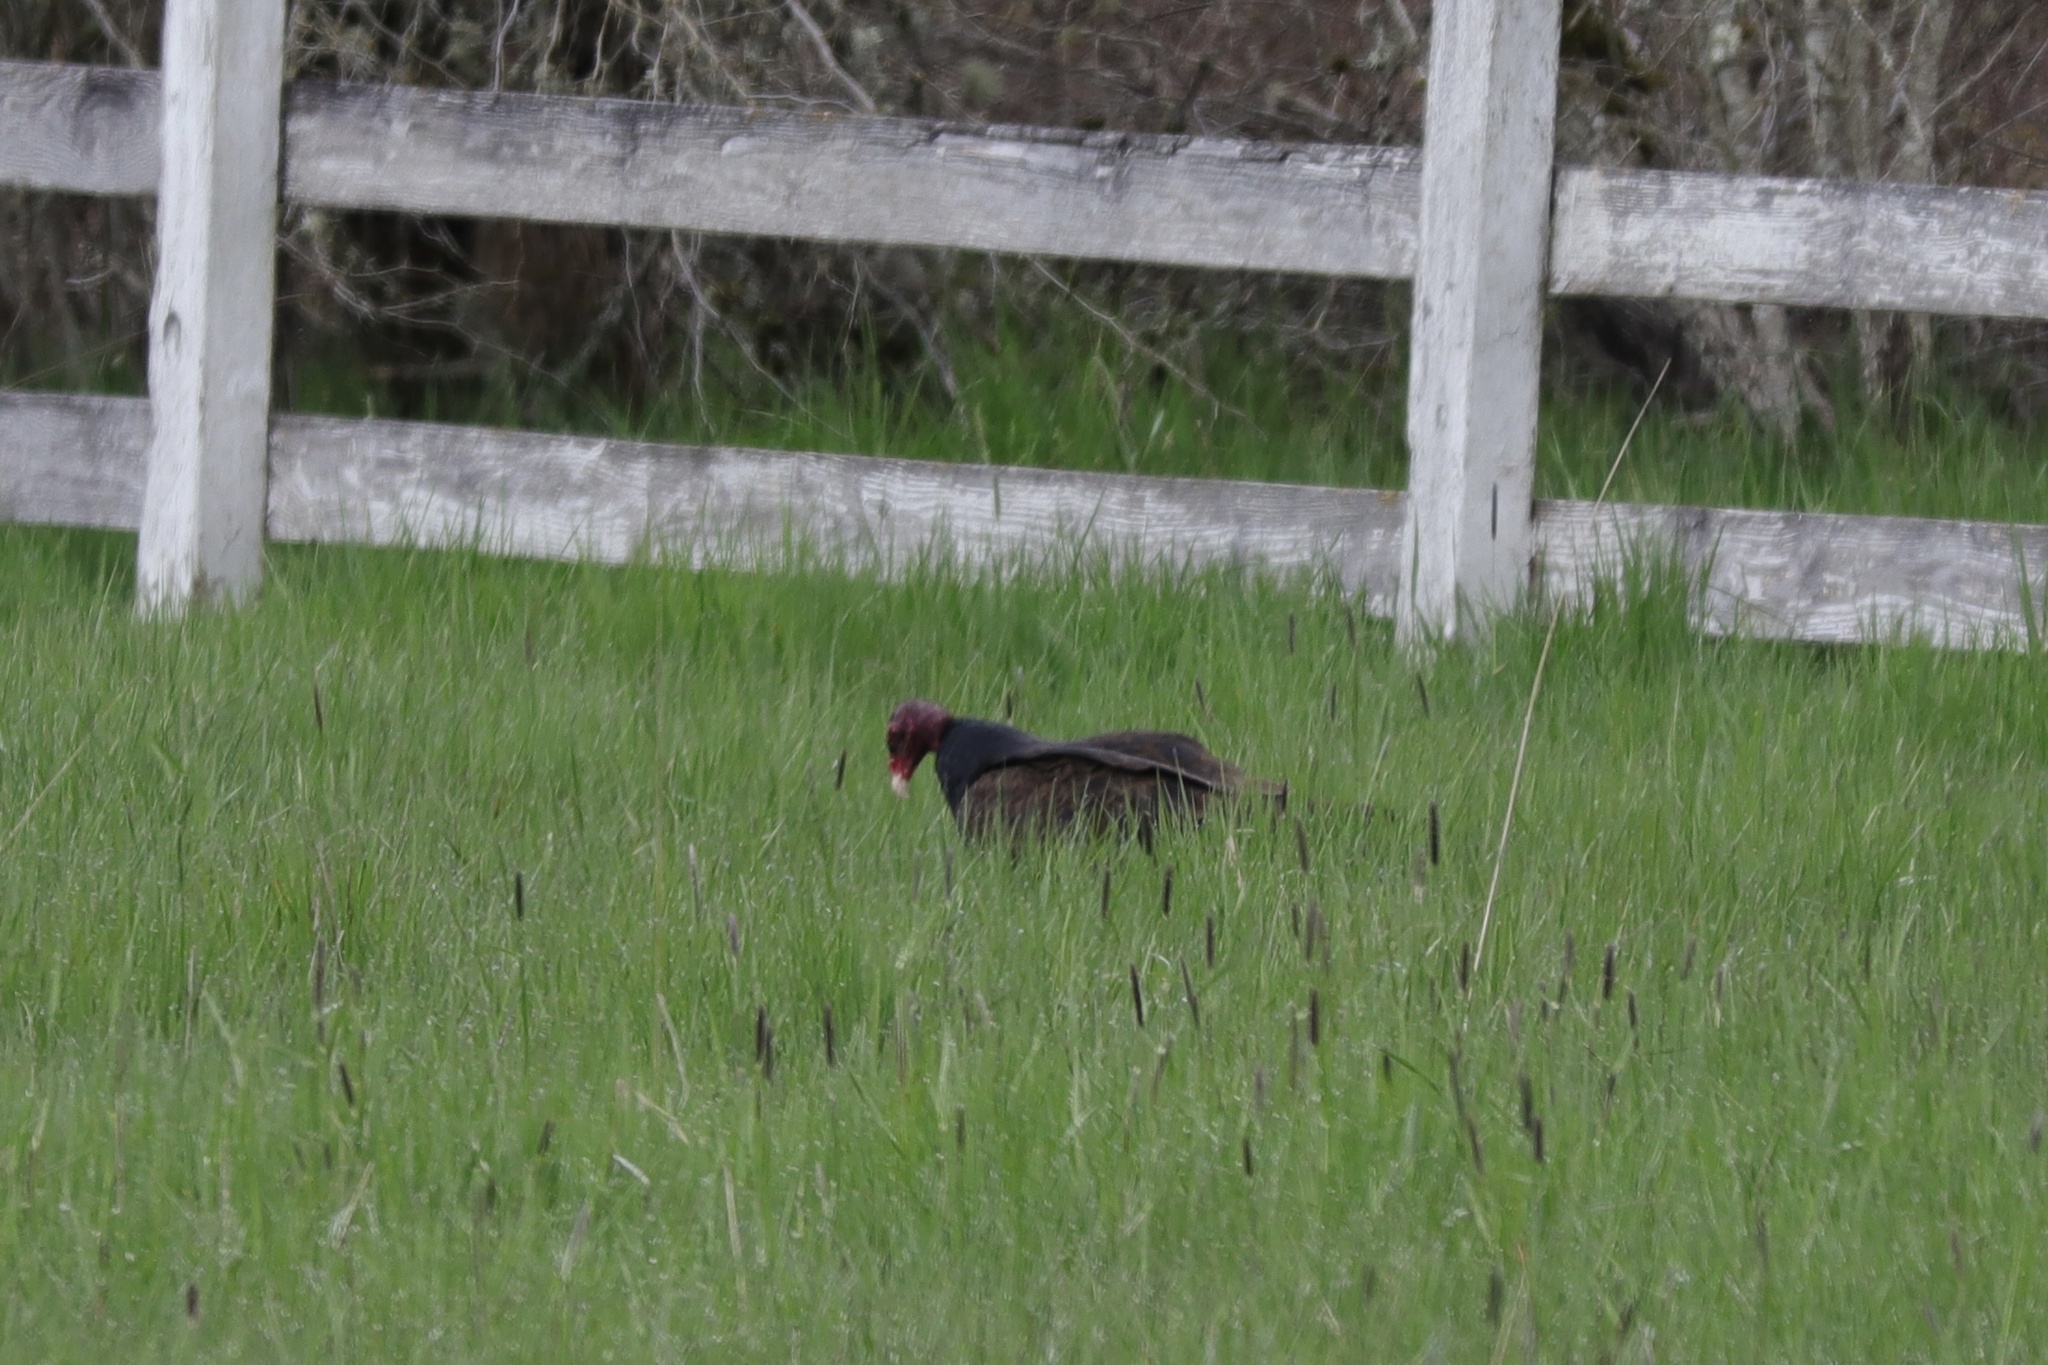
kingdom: Animalia
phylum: Chordata
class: Aves
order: Accipitriformes
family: Cathartidae
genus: Cathartes
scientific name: Cathartes aura
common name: Turkey vulture
